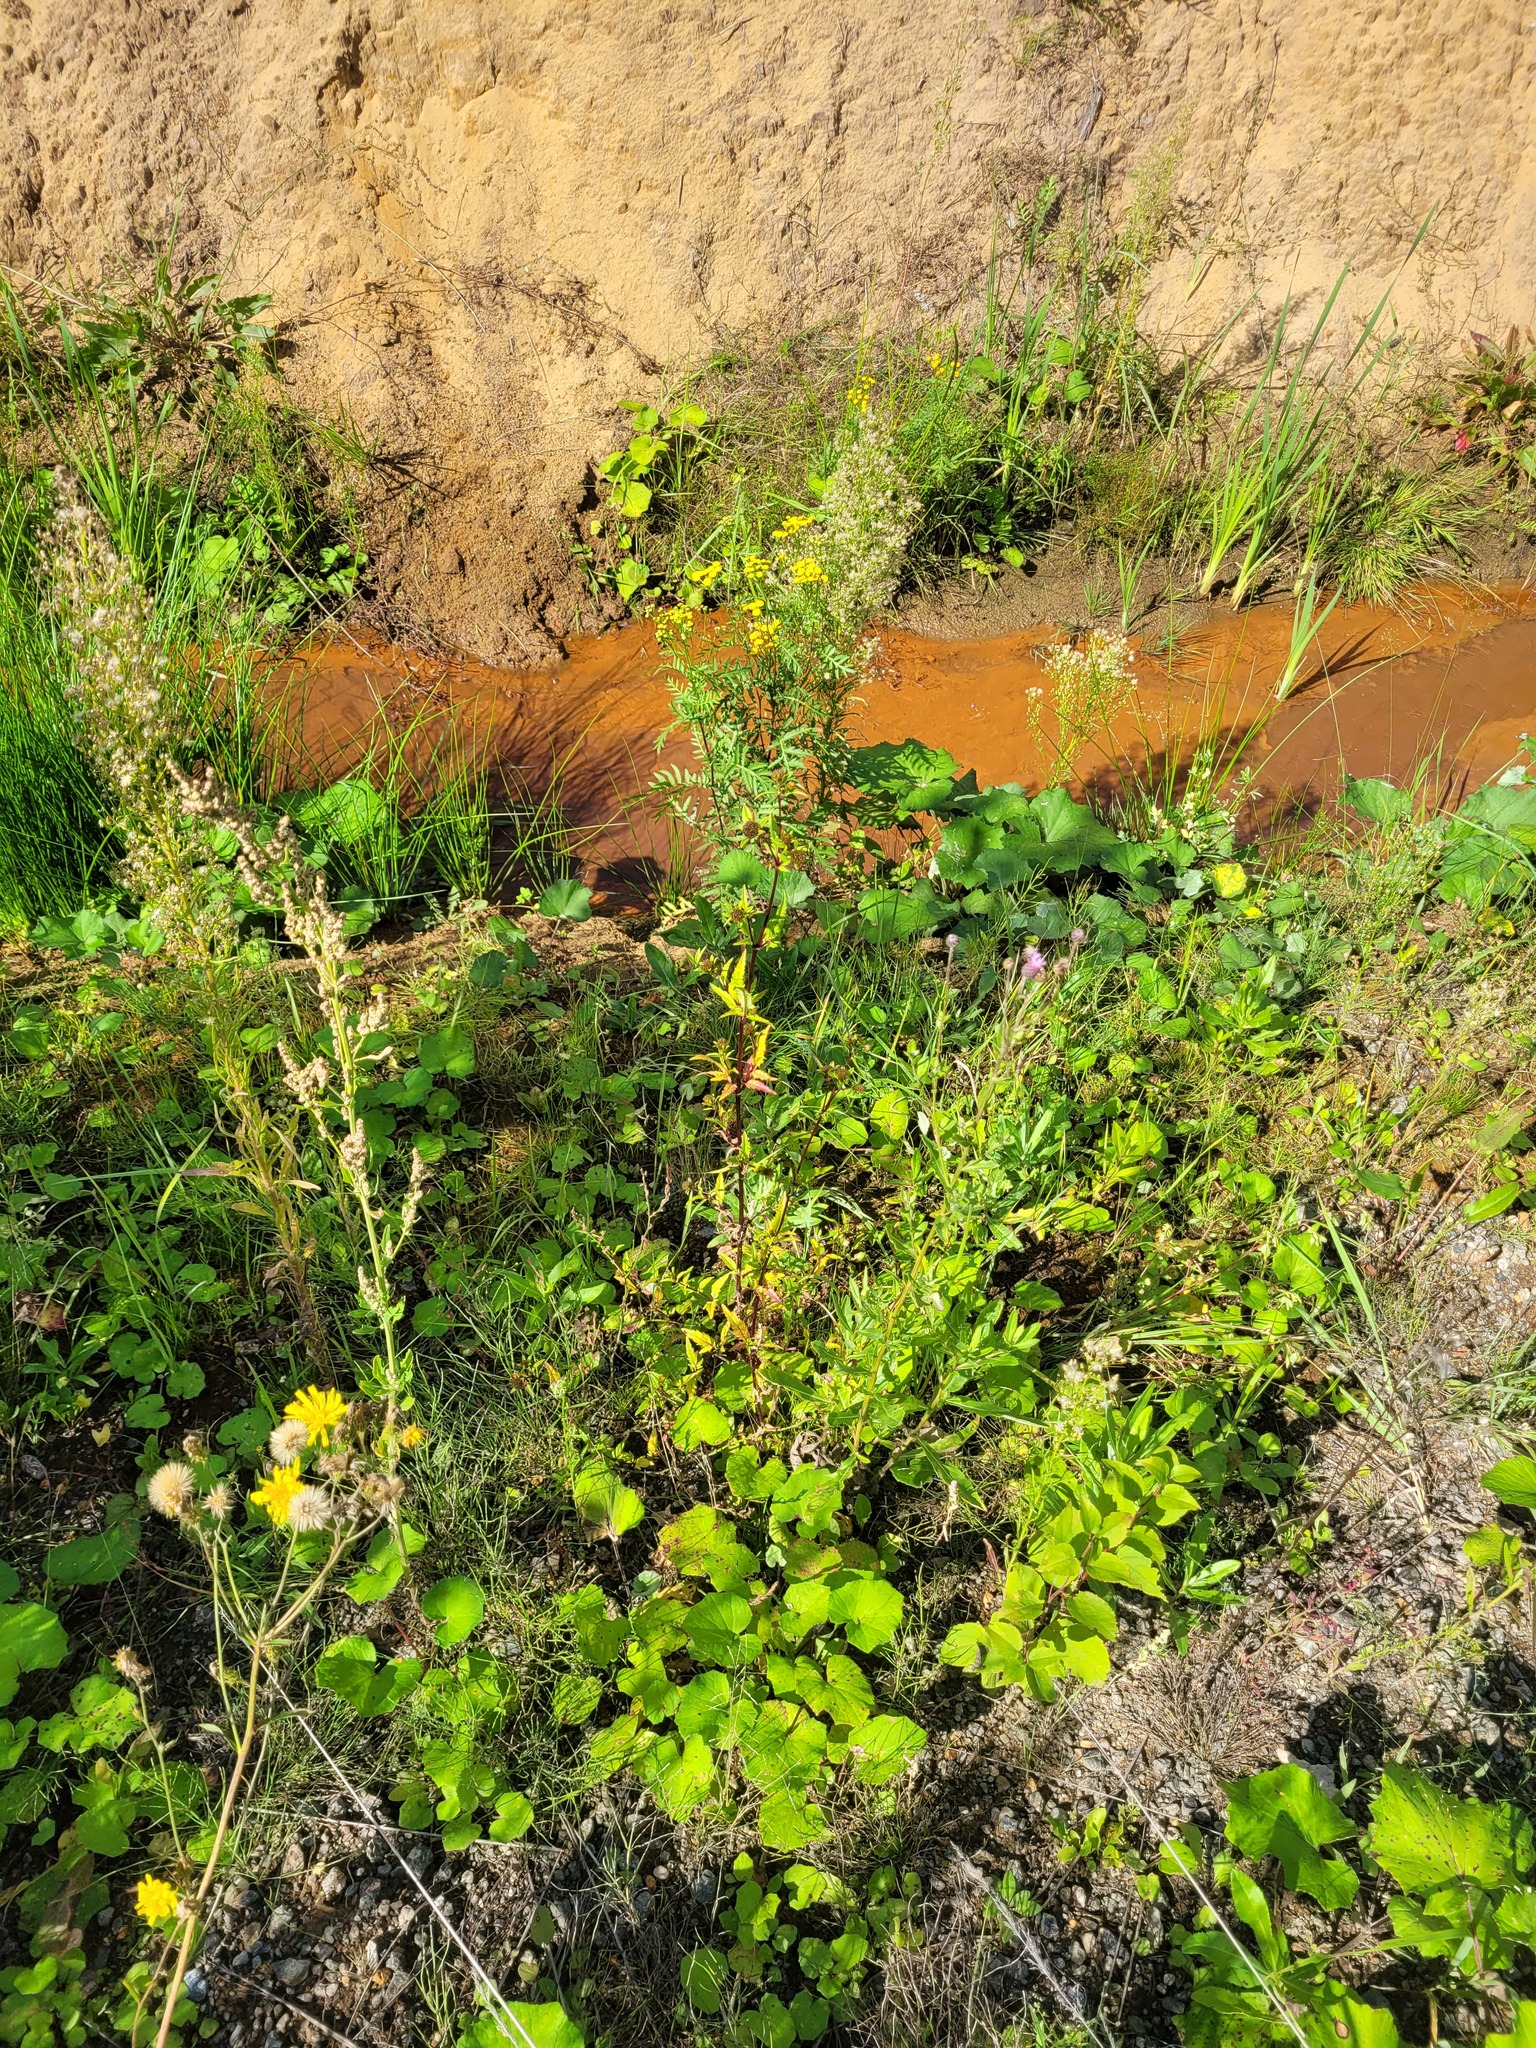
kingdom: Plantae
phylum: Tracheophyta
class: Magnoliopsida
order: Asterales
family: Asteraceae
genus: Bidens
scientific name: Bidens tripartita
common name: Trifid bur-marigold
